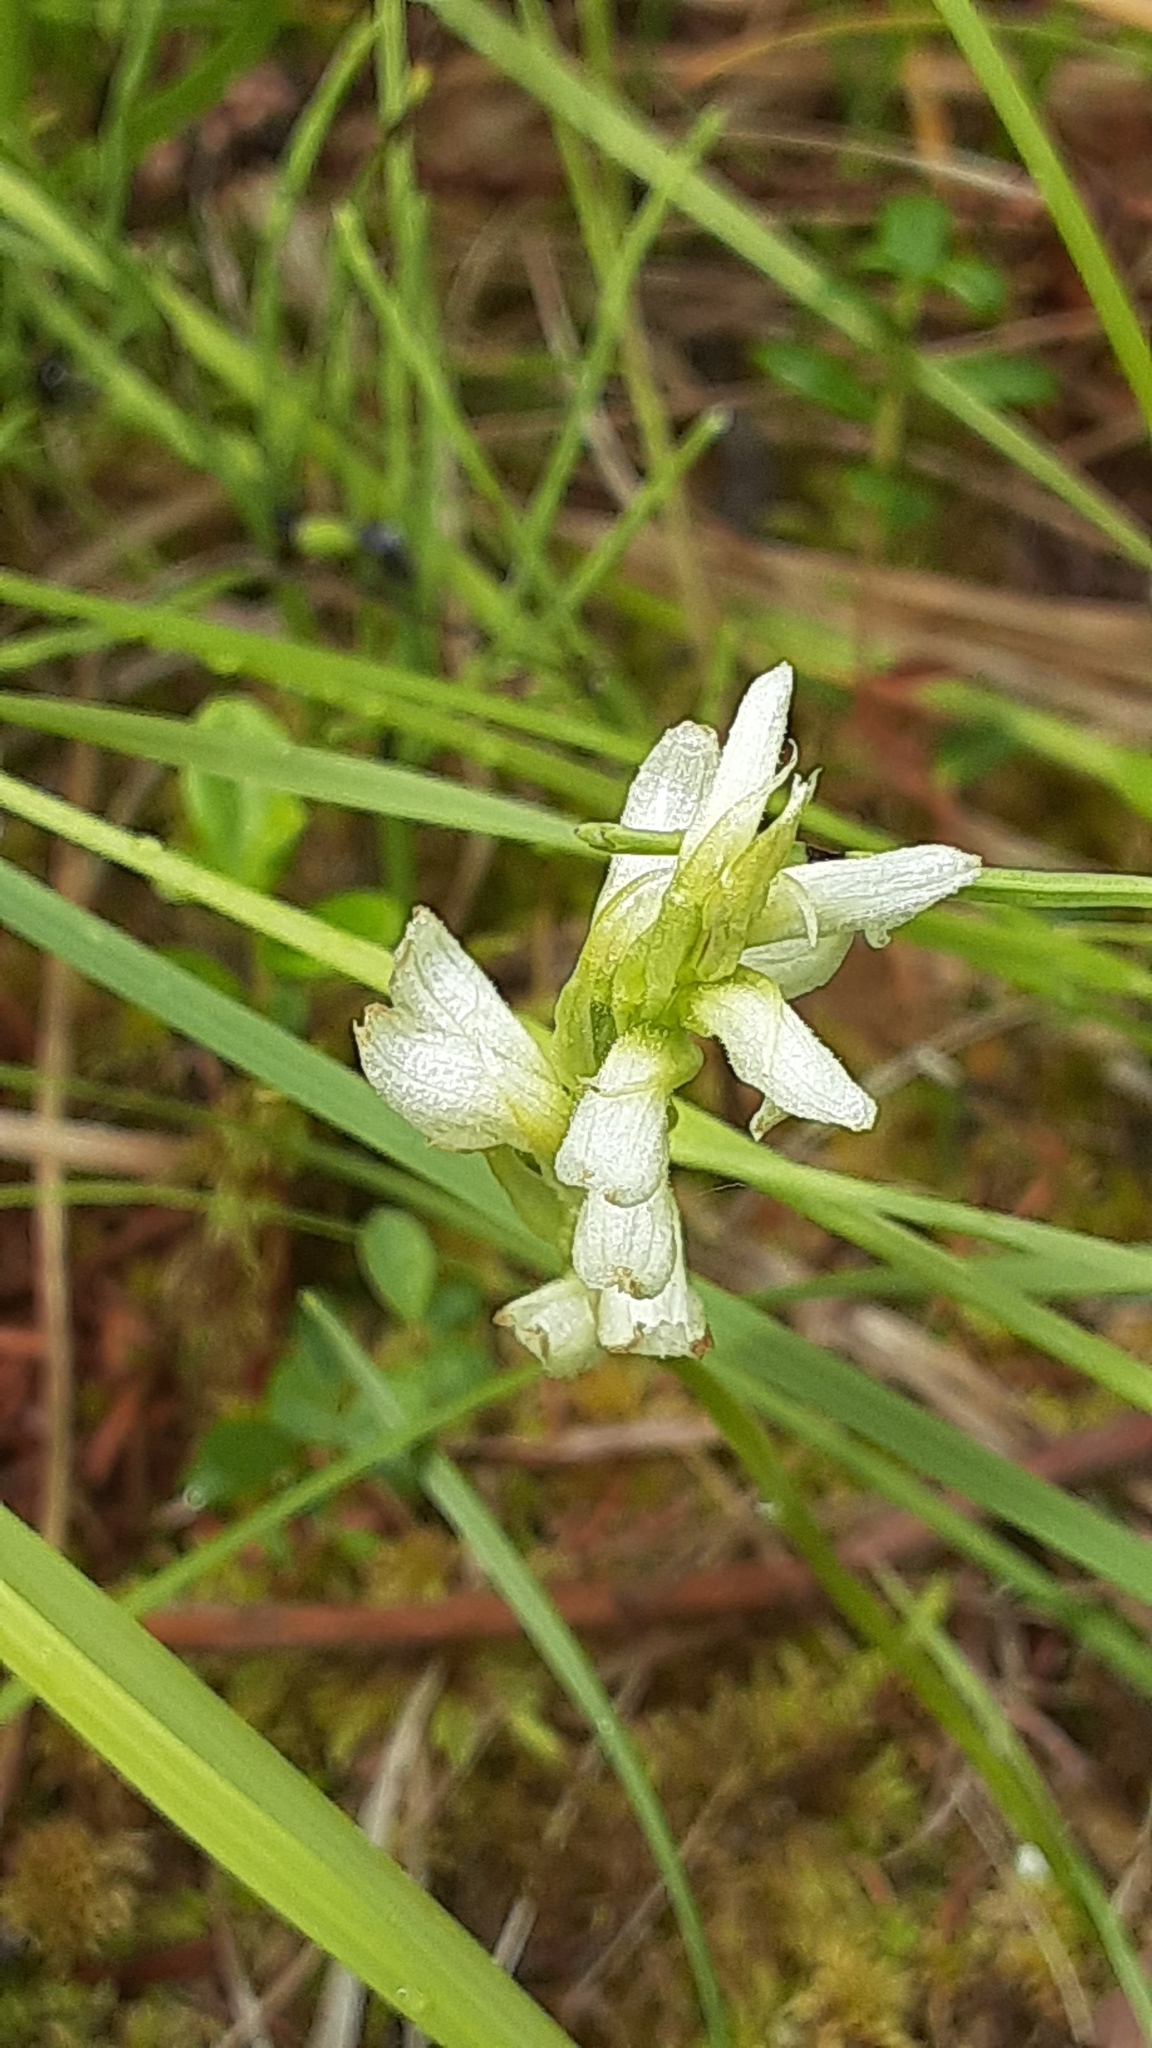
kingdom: Plantae
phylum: Tracheophyta
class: Liliopsida
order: Asparagales
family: Orchidaceae
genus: Spiranthes
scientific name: Spiranthes romanzoffiana
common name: Irish lady's-tresses
